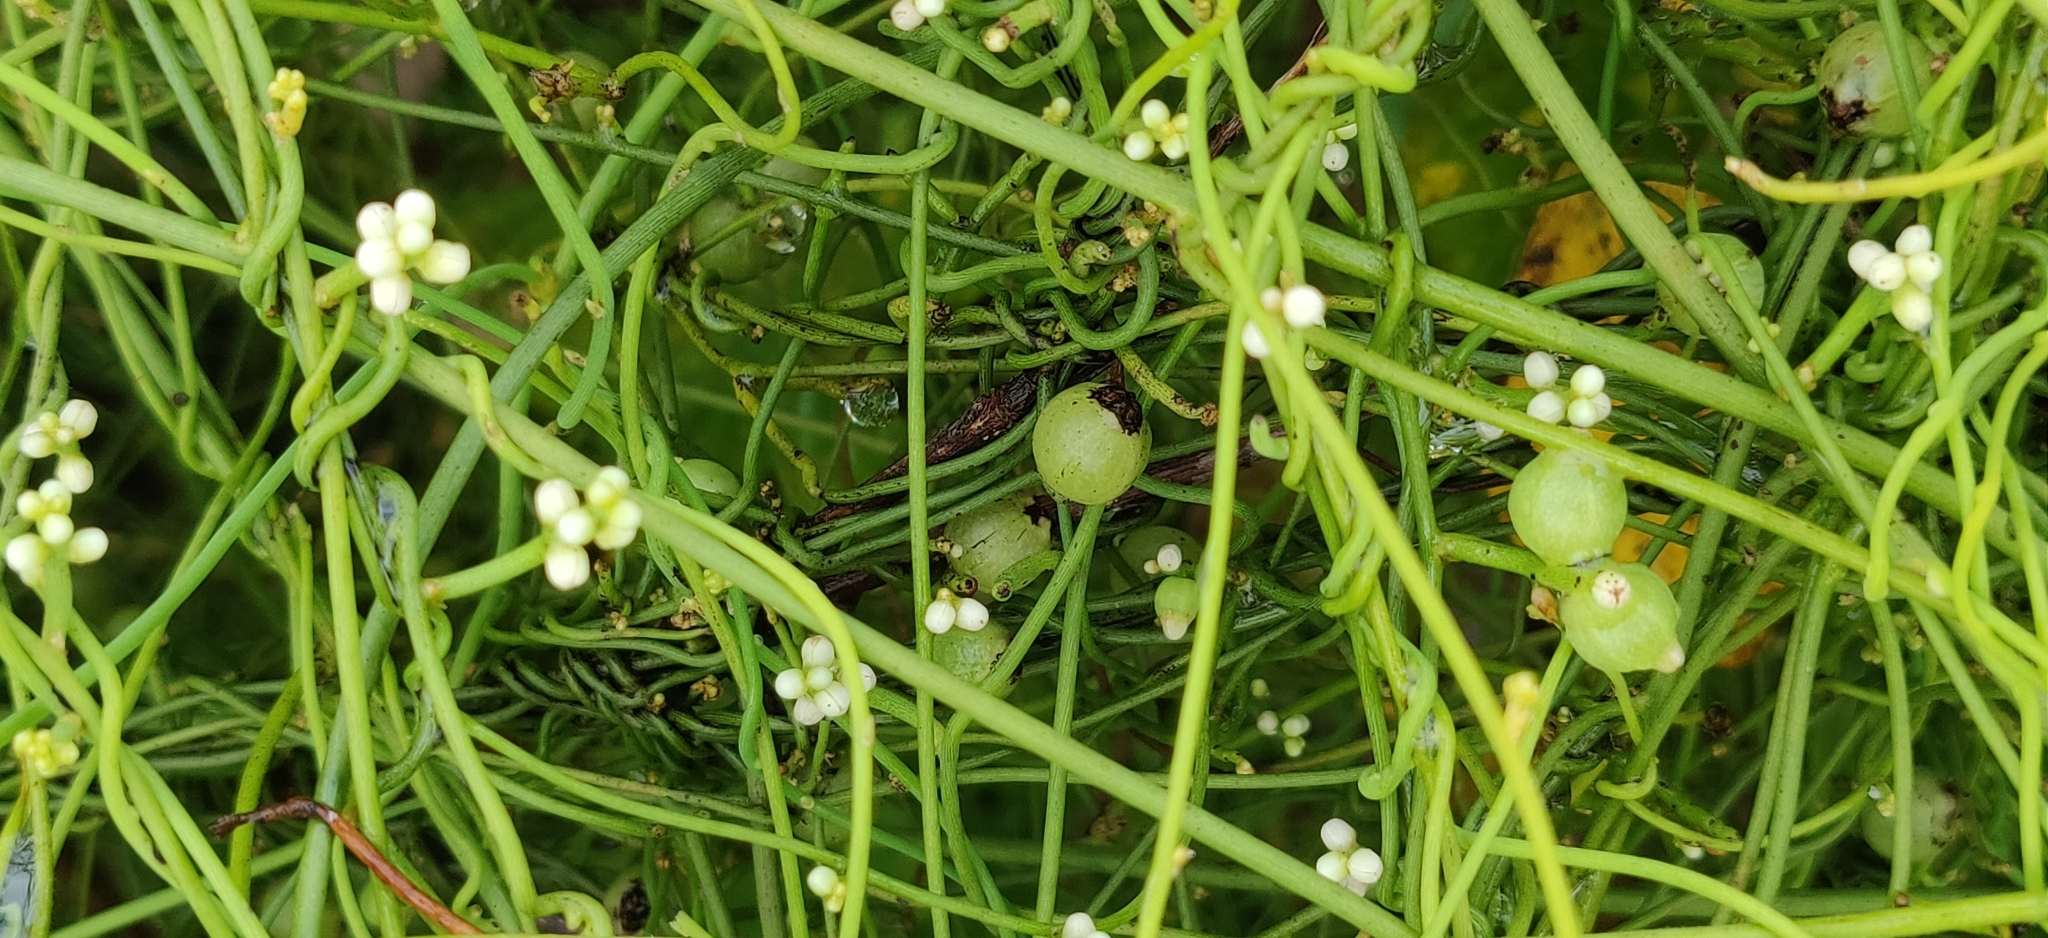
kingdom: Plantae
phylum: Tracheophyta
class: Magnoliopsida
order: Laurales
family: Lauraceae
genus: Cassytha
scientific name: Cassytha filiformis
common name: Dodder-laurel
